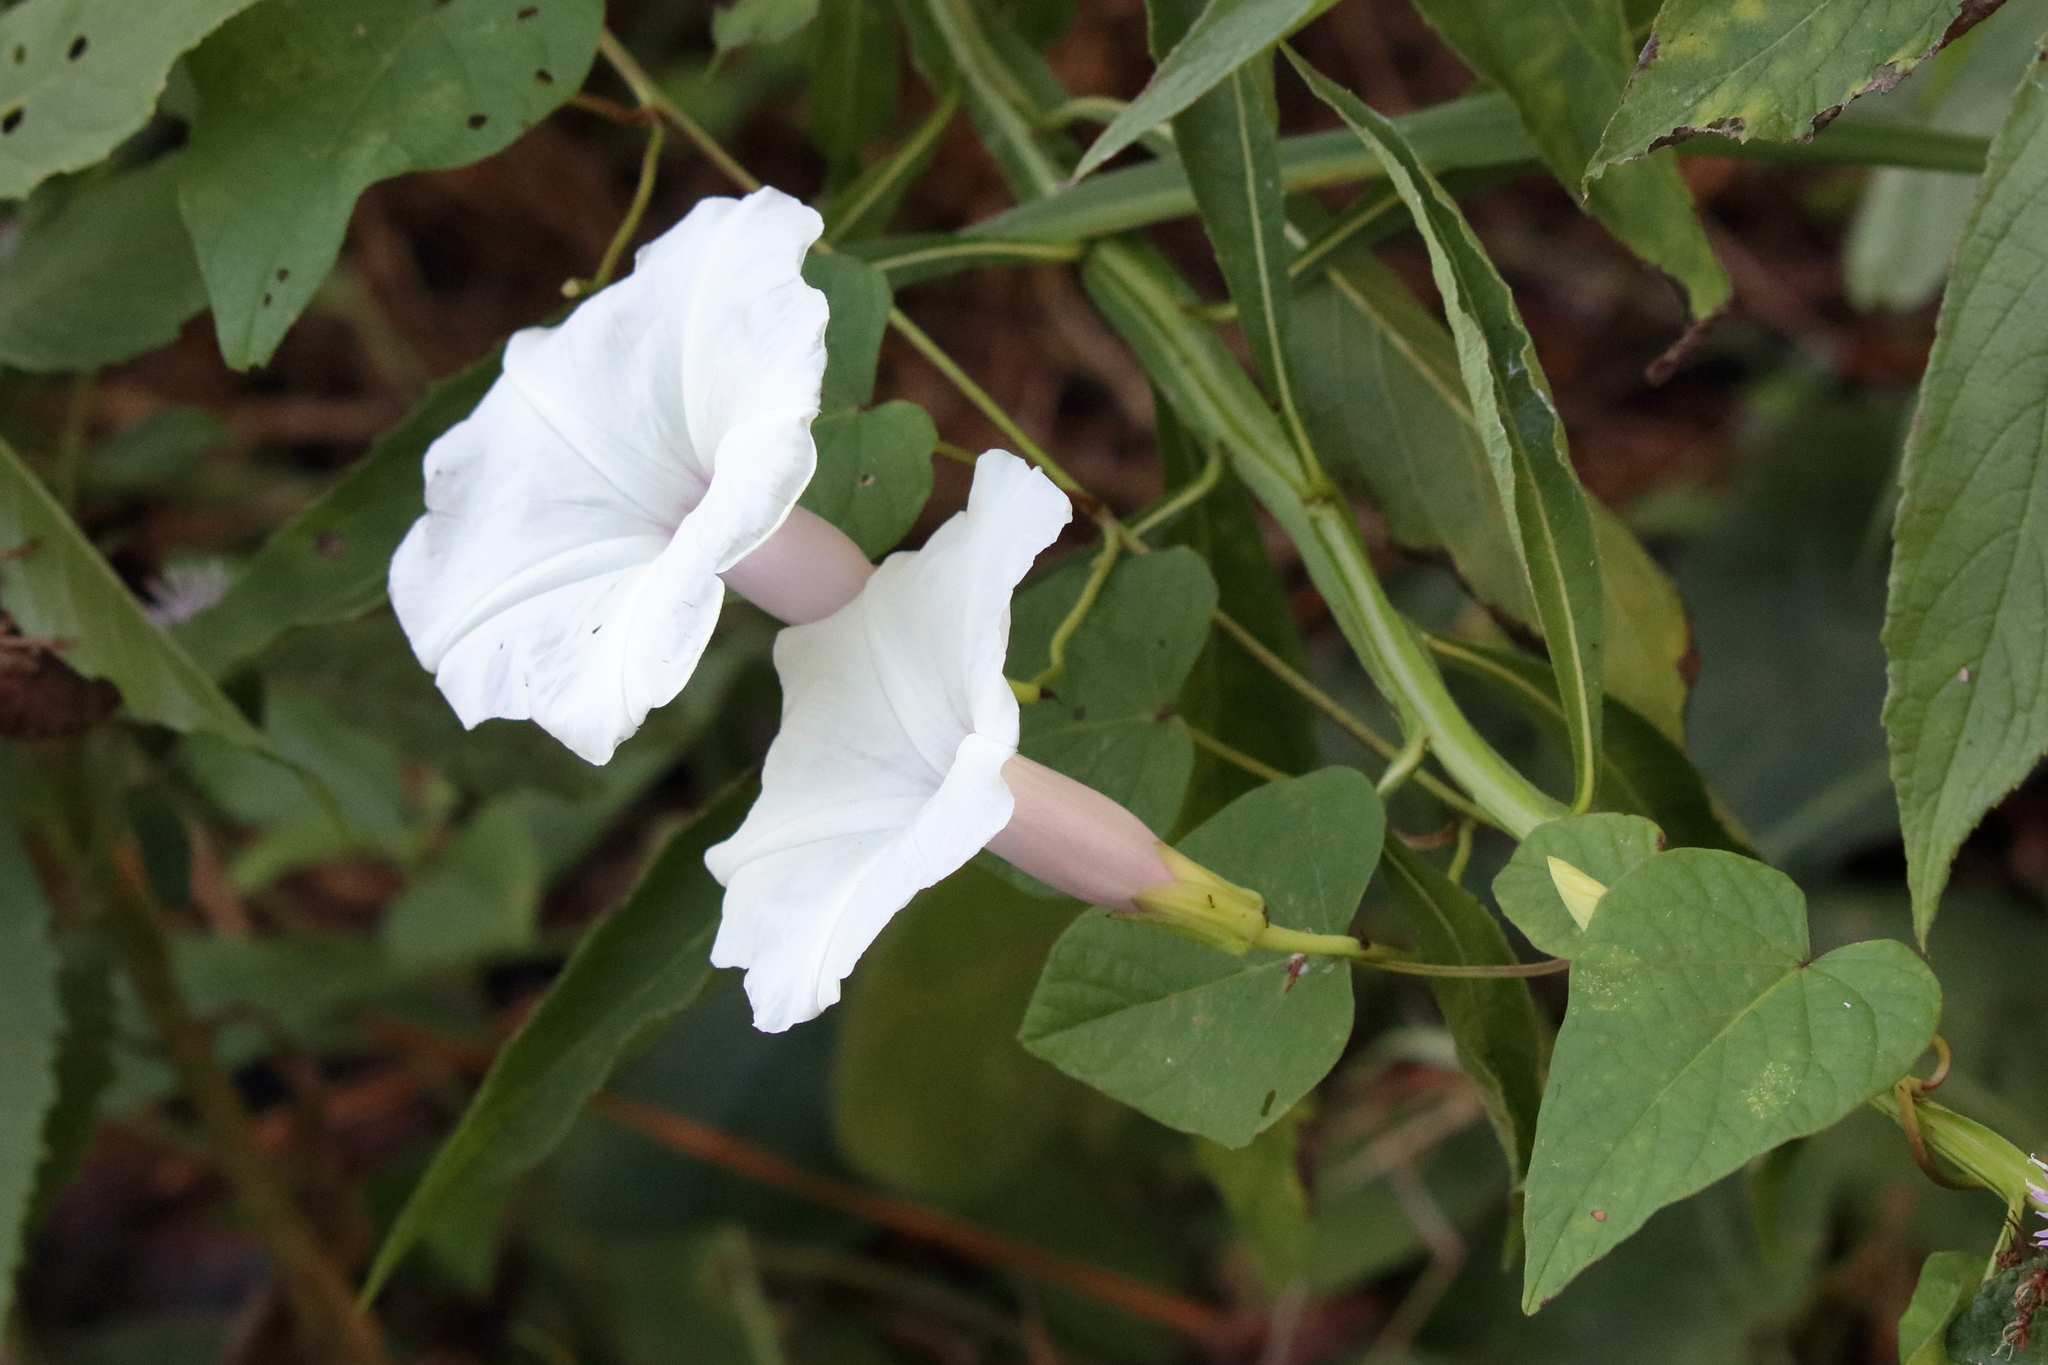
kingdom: Plantae
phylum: Tracheophyta
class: Magnoliopsida
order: Solanales
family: Convolvulaceae
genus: Ipomoea
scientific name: Ipomoea pandurata
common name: Man-of-the-earth
